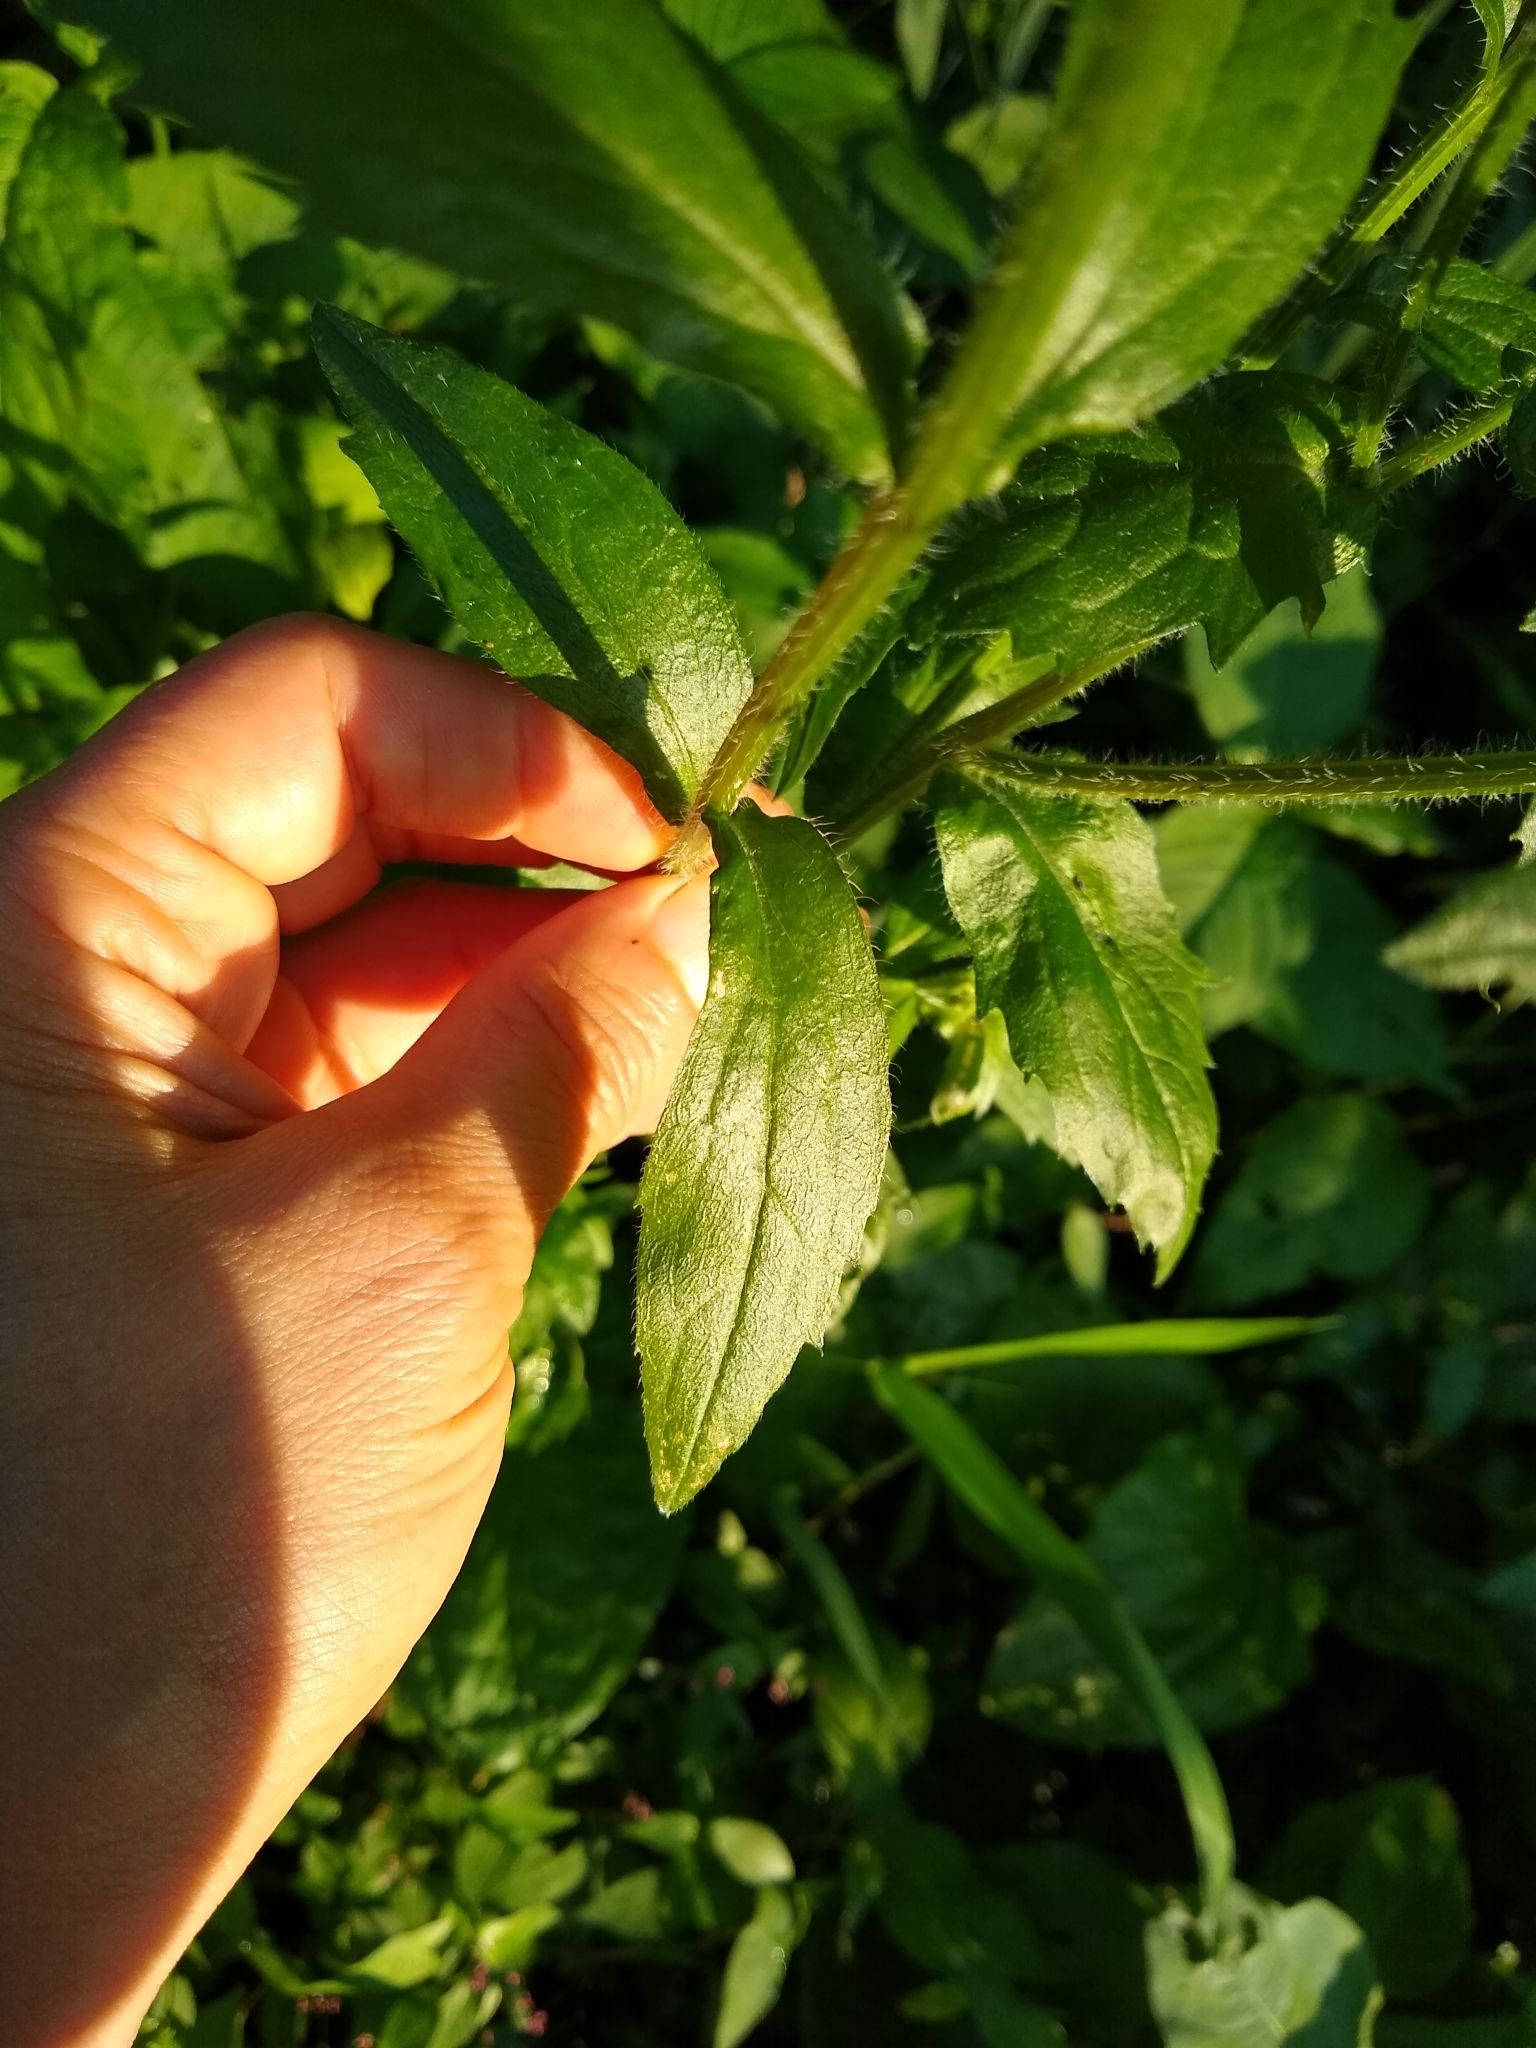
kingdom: Plantae
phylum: Tracheophyta
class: Magnoliopsida
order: Asterales
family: Asteraceae
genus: Erigeron
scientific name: Erigeron annuus
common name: Tall fleabane
